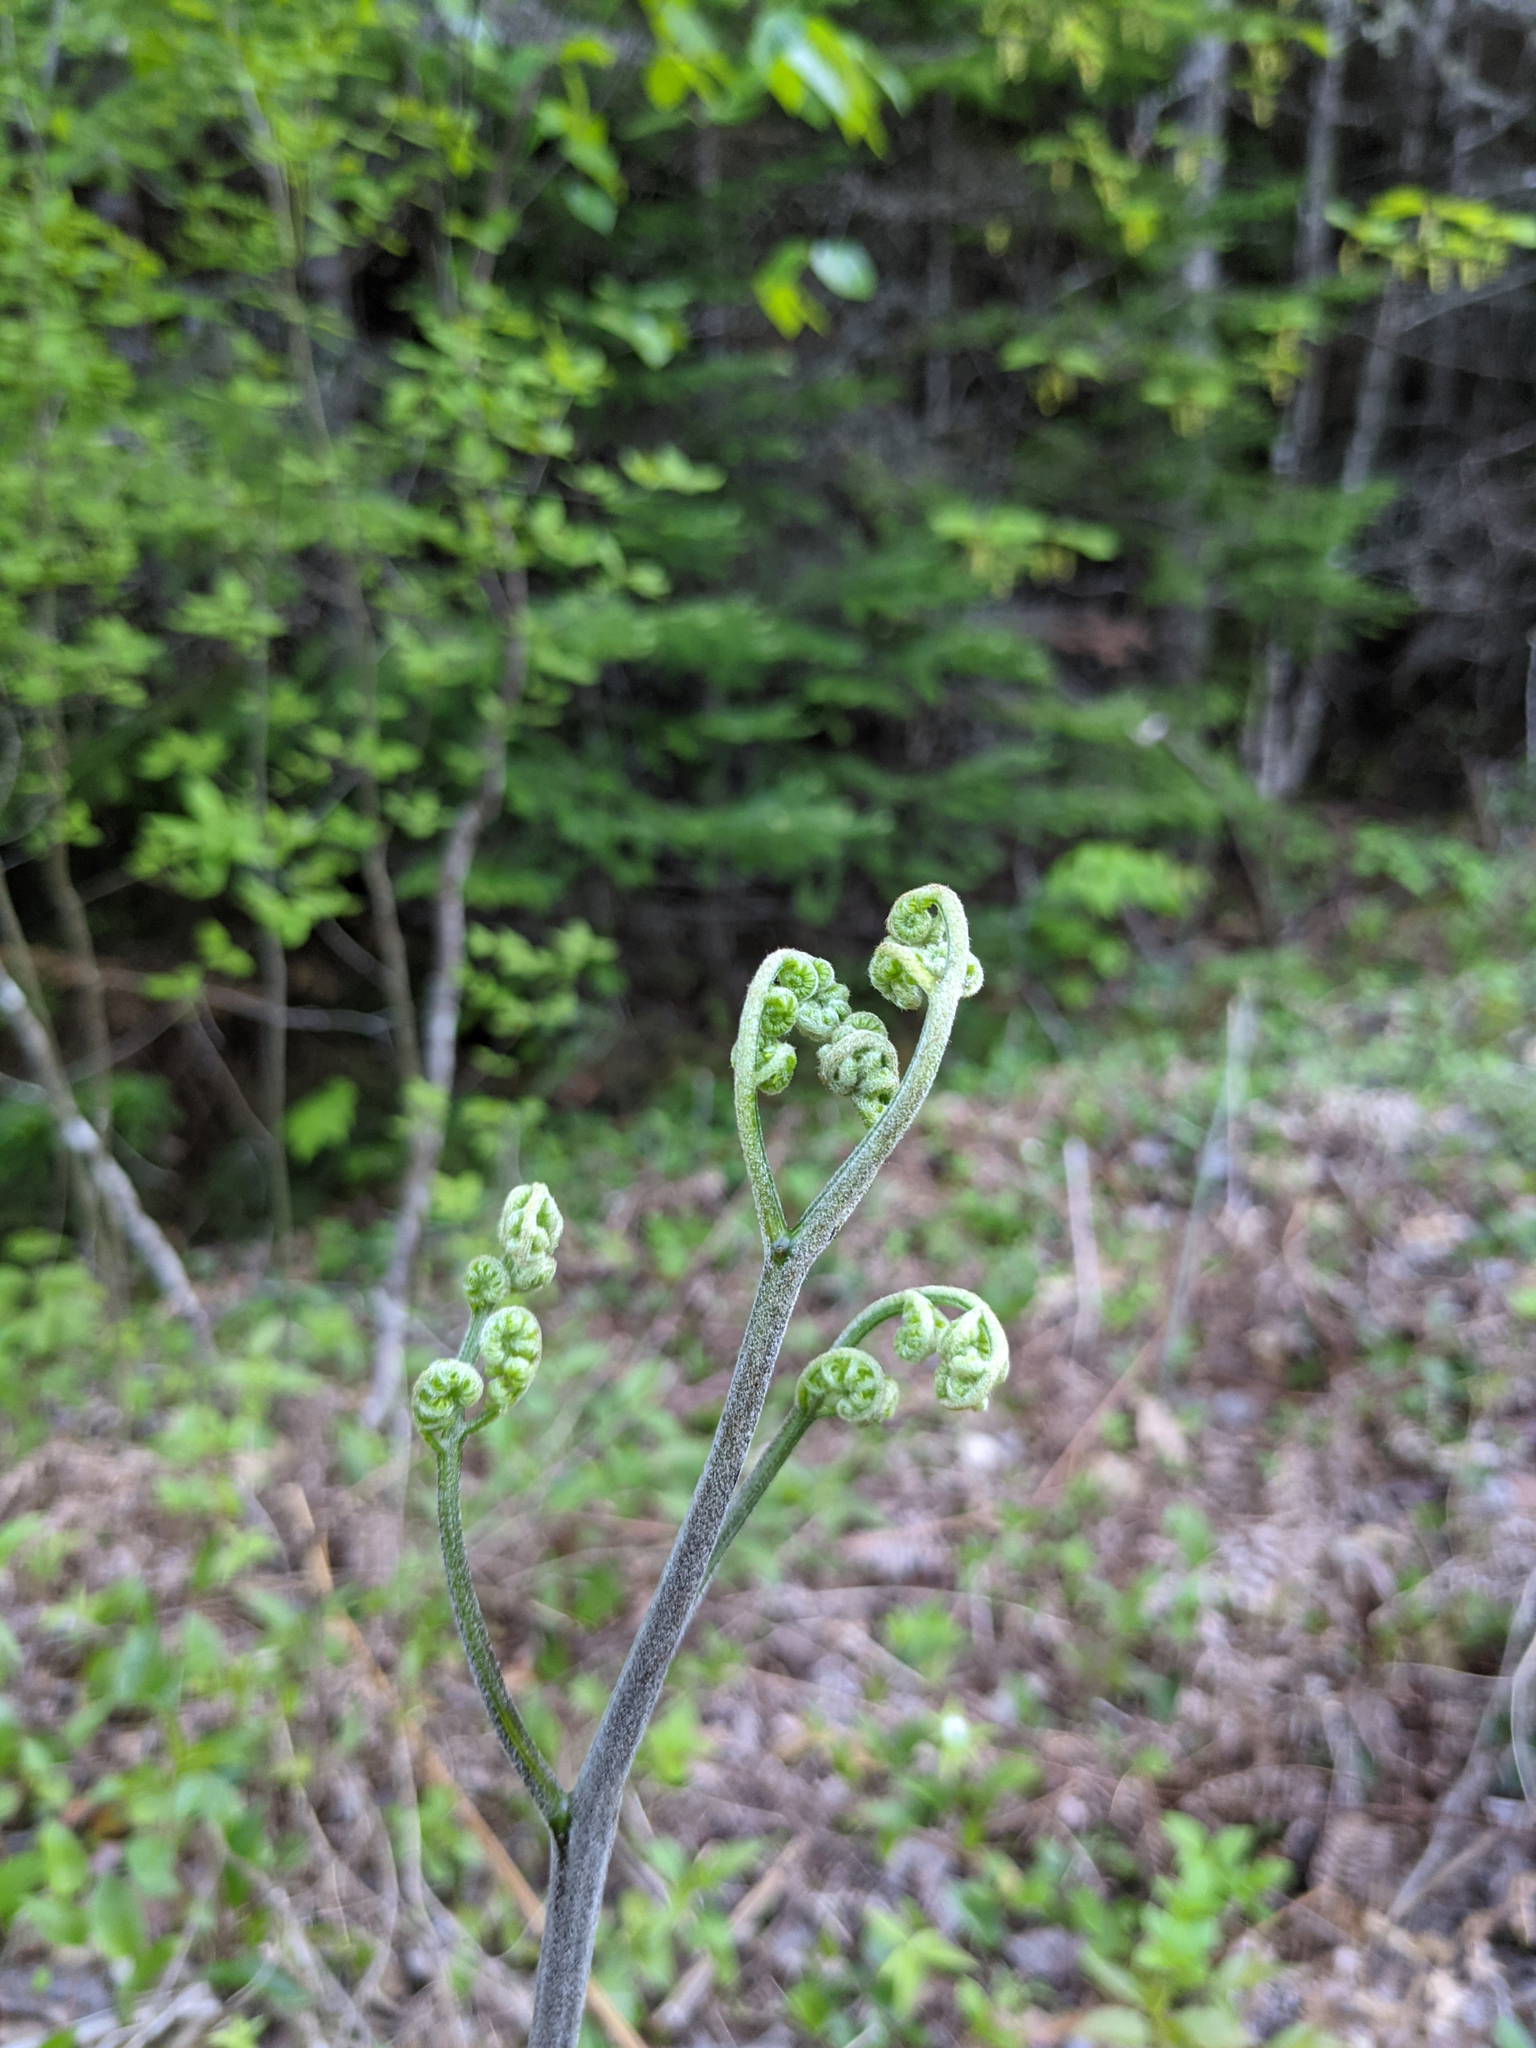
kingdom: Plantae
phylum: Tracheophyta
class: Polypodiopsida
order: Polypodiales
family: Dennstaedtiaceae
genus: Pteridium
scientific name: Pteridium aquilinum
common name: Bracken
